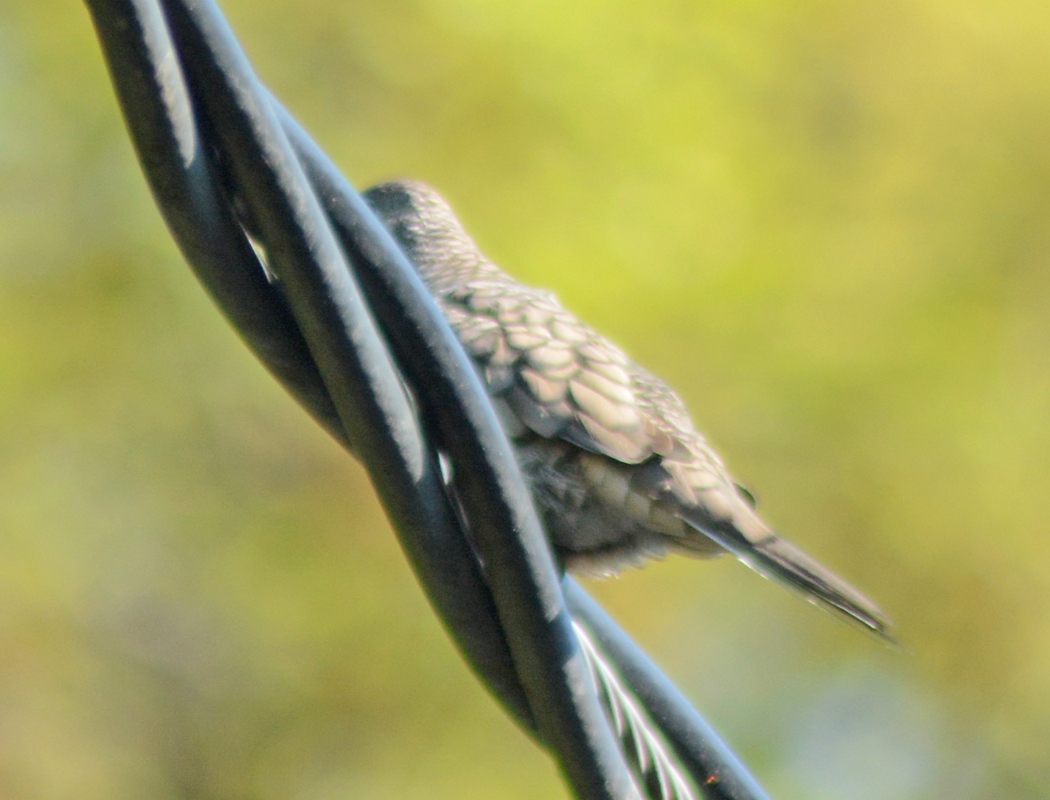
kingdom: Animalia
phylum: Chordata
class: Aves
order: Columbiformes
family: Columbidae
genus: Columbina
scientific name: Columbina inca
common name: Inca dove
